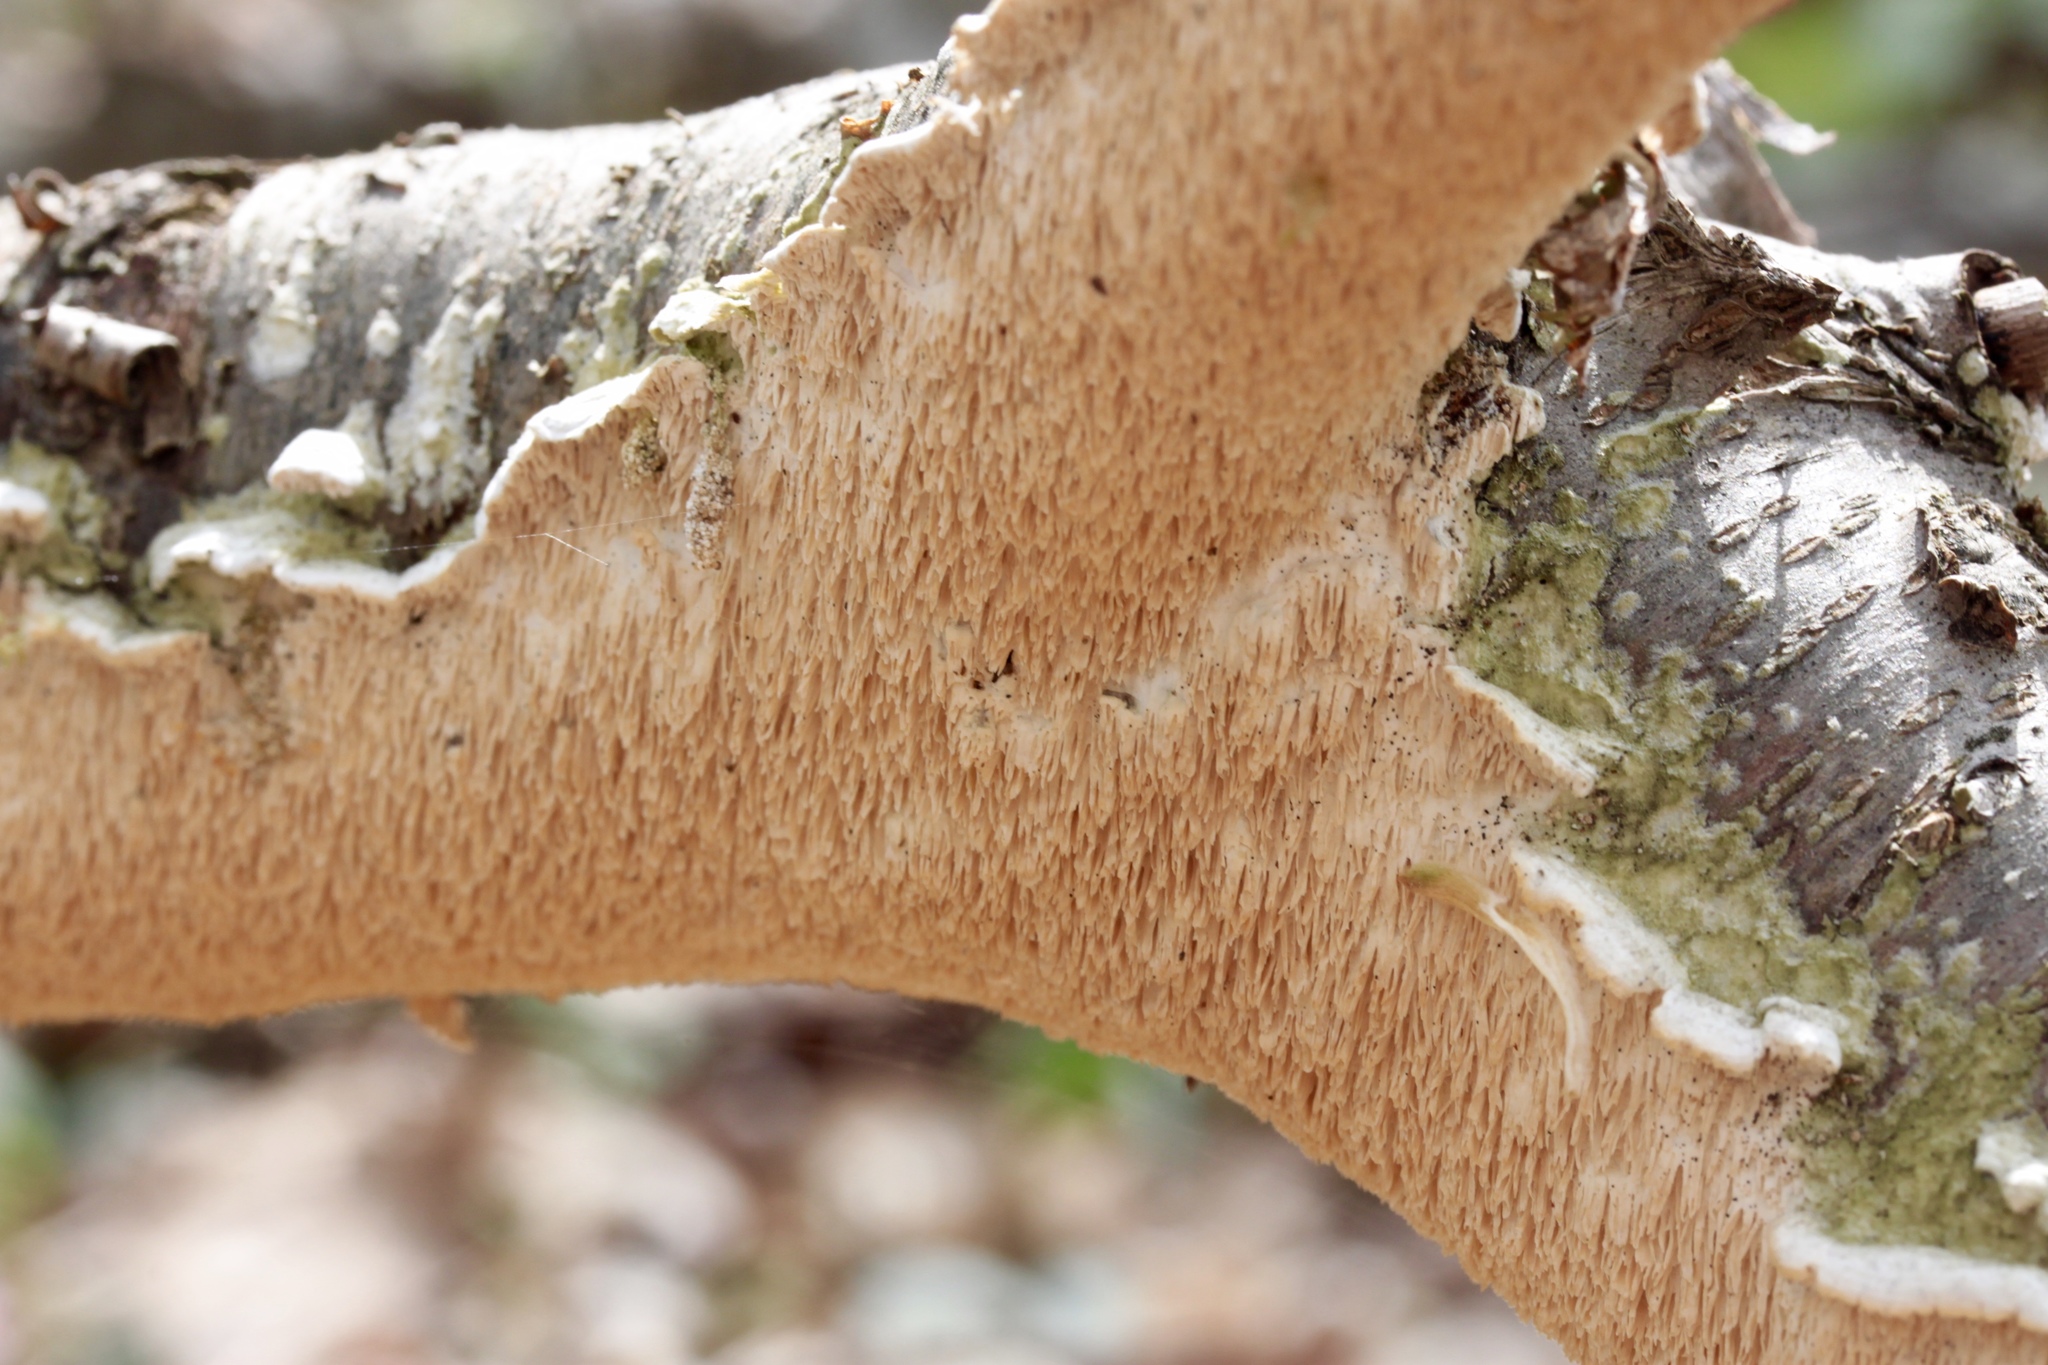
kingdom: Fungi
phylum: Basidiomycota
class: Agaricomycetes
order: Polyporales
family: Irpicaceae
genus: Irpex
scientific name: Irpex lacteus
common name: Milk-white toothed polypore
